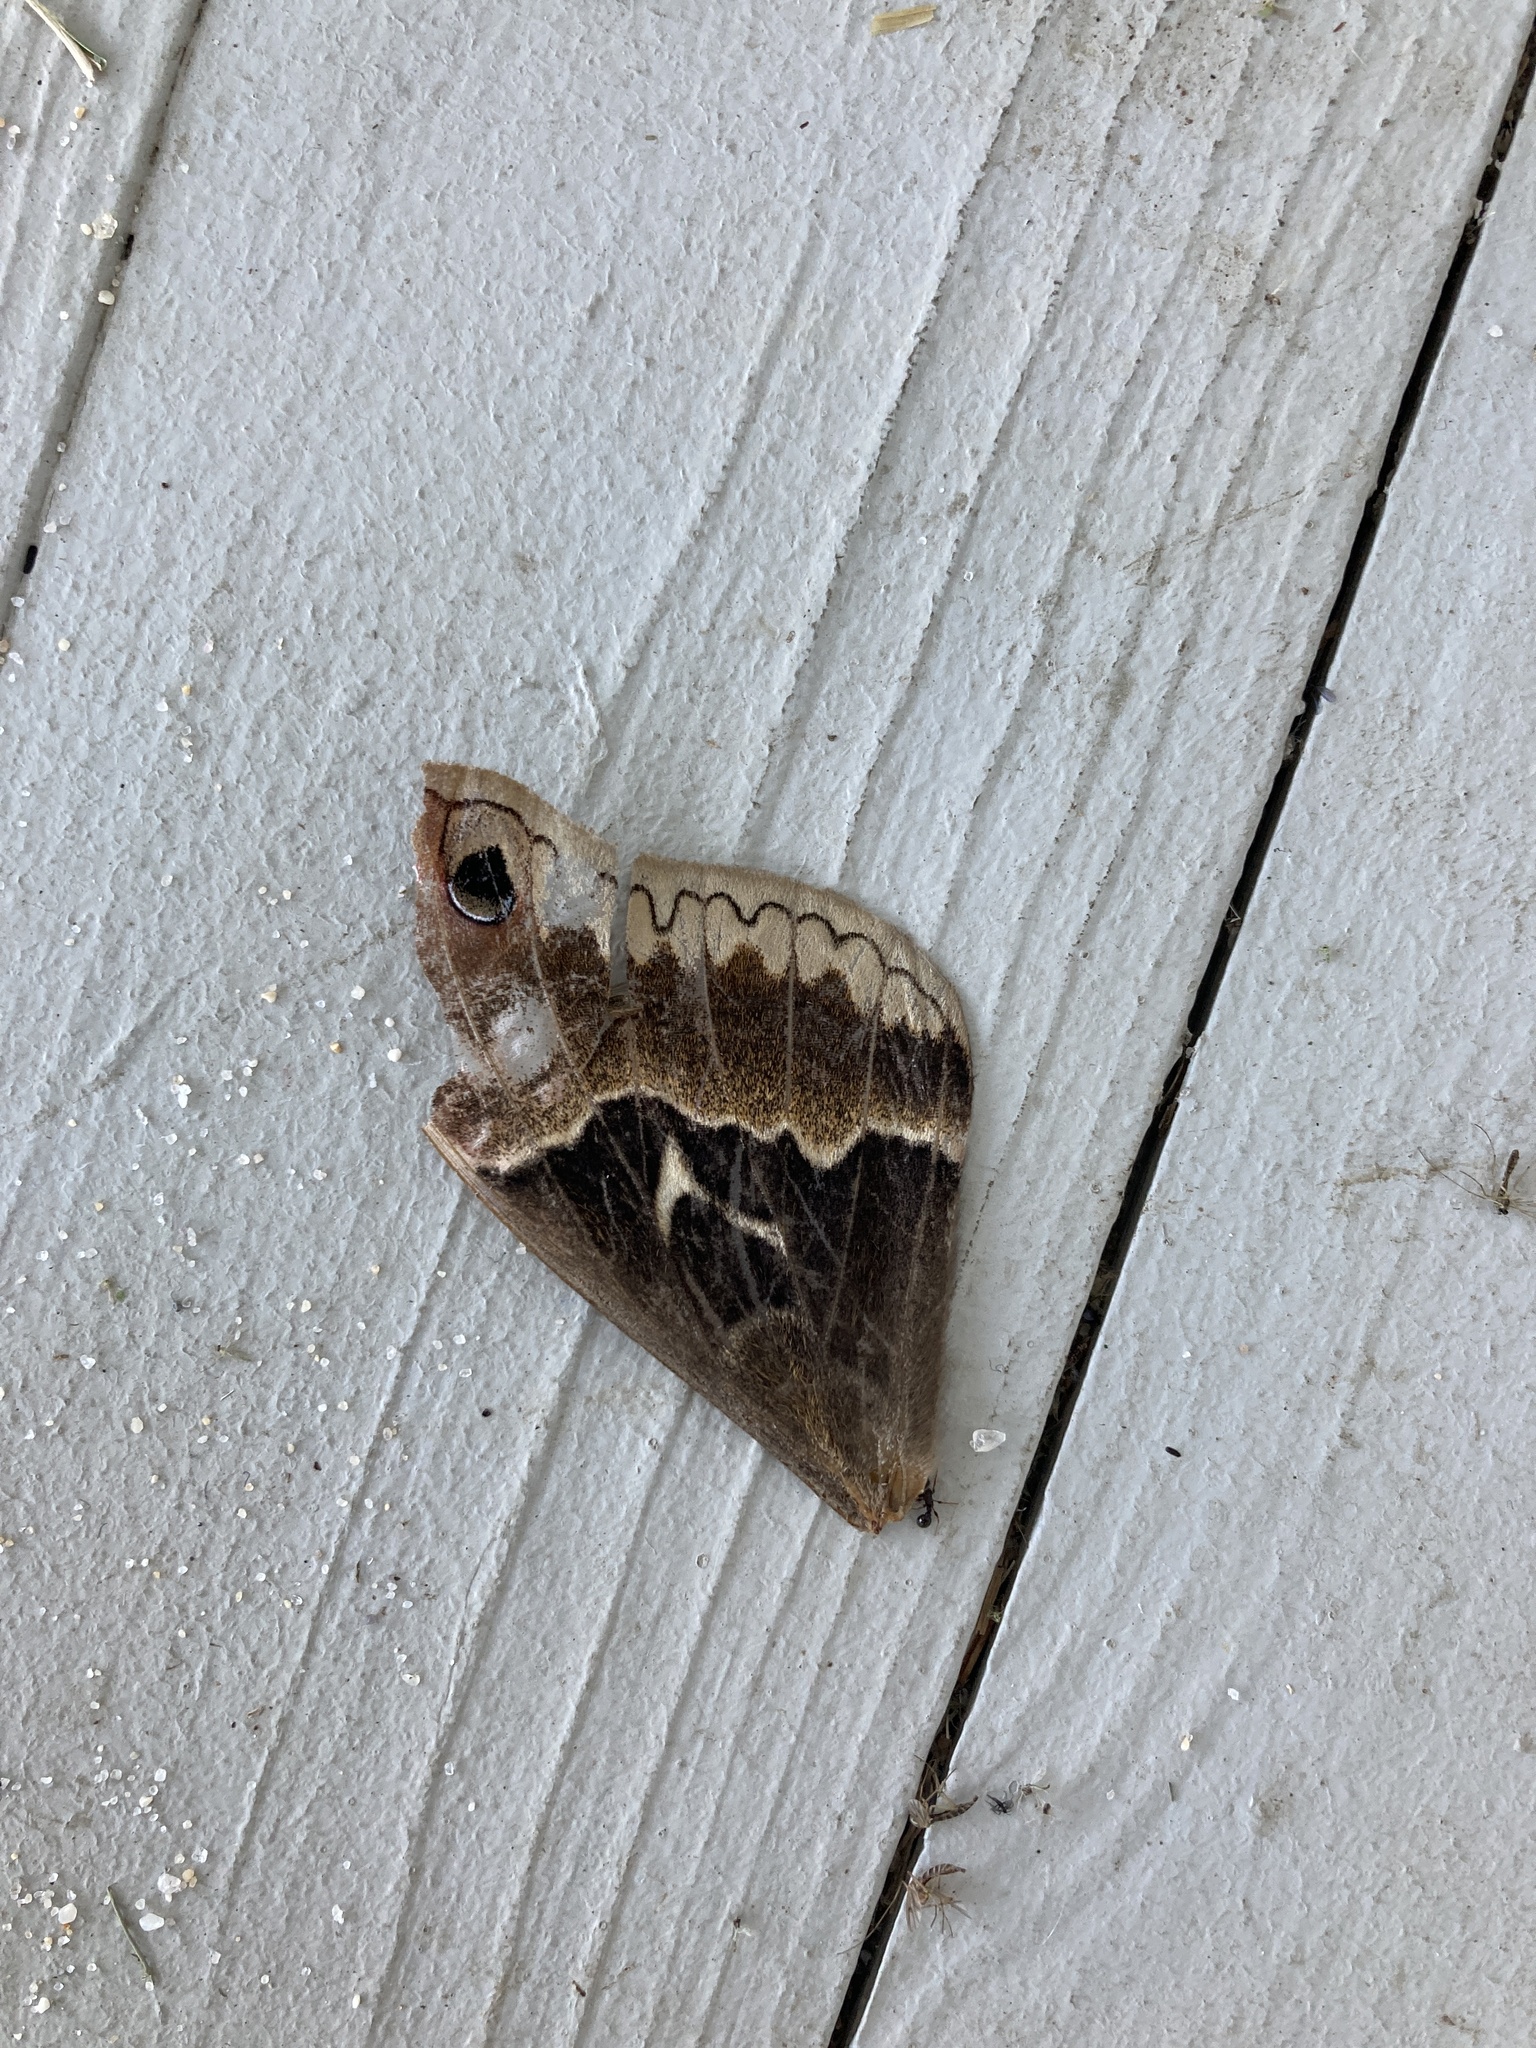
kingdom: Animalia
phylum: Arthropoda
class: Insecta
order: Lepidoptera
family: Saturniidae
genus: Callosamia
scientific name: Callosamia angulifera
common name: Tulip tree silkmoth
